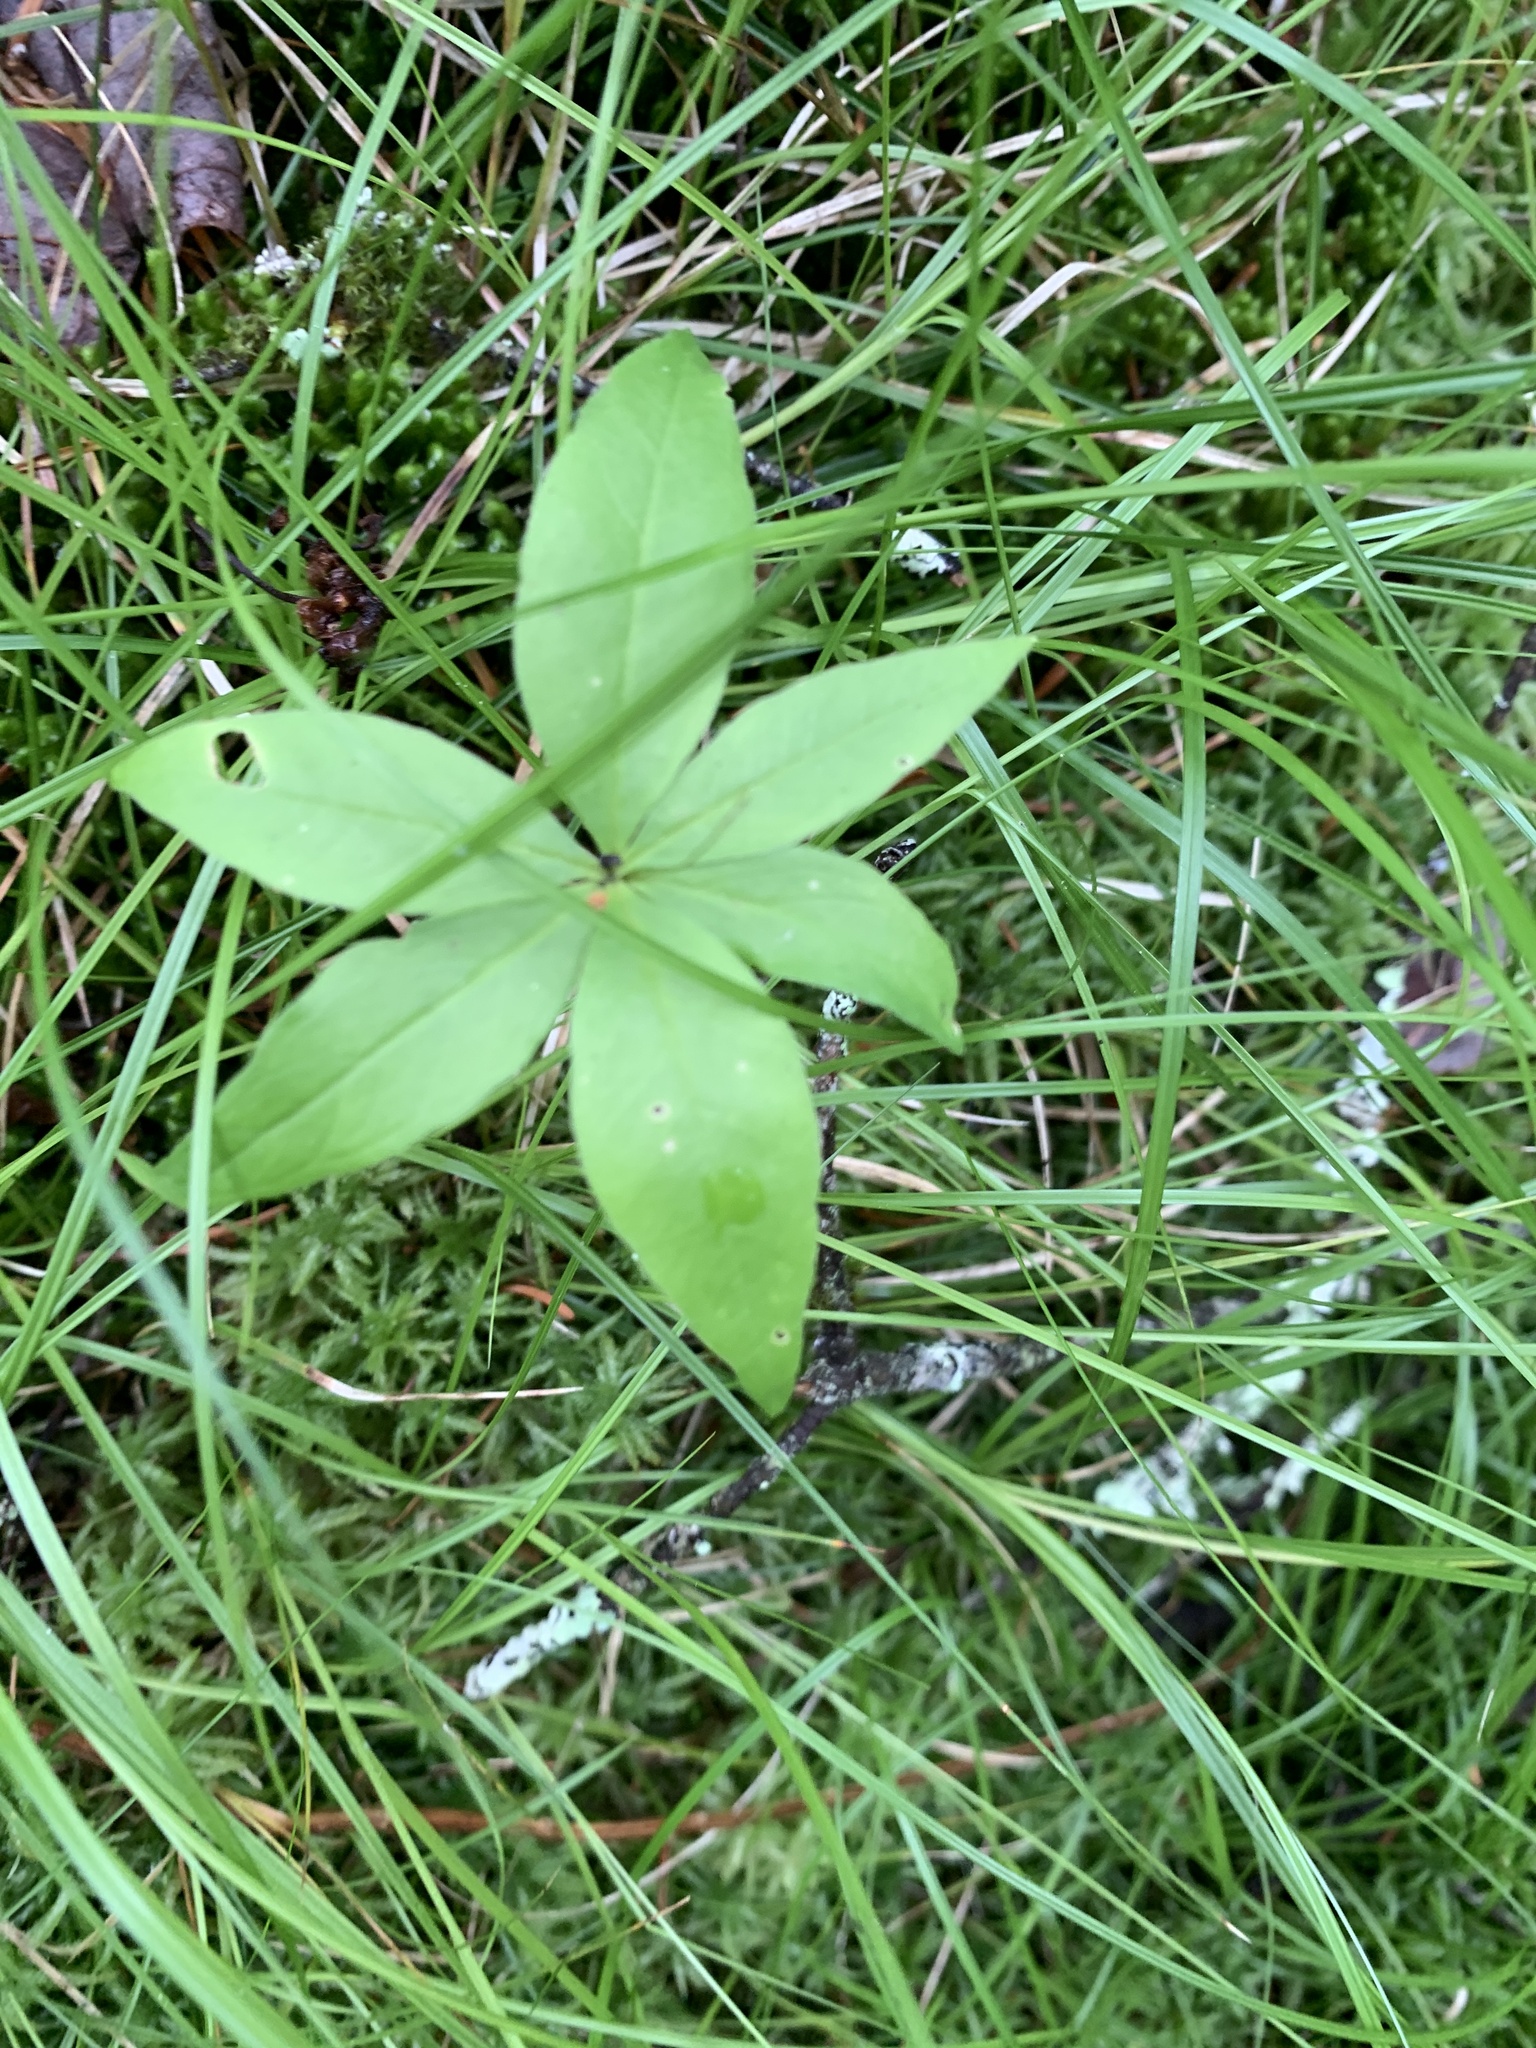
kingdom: Plantae
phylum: Tracheophyta
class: Magnoliopsida
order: Ericales
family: Primulaceae
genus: Lysimachia
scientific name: Lysimachia borealis
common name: American starflower
